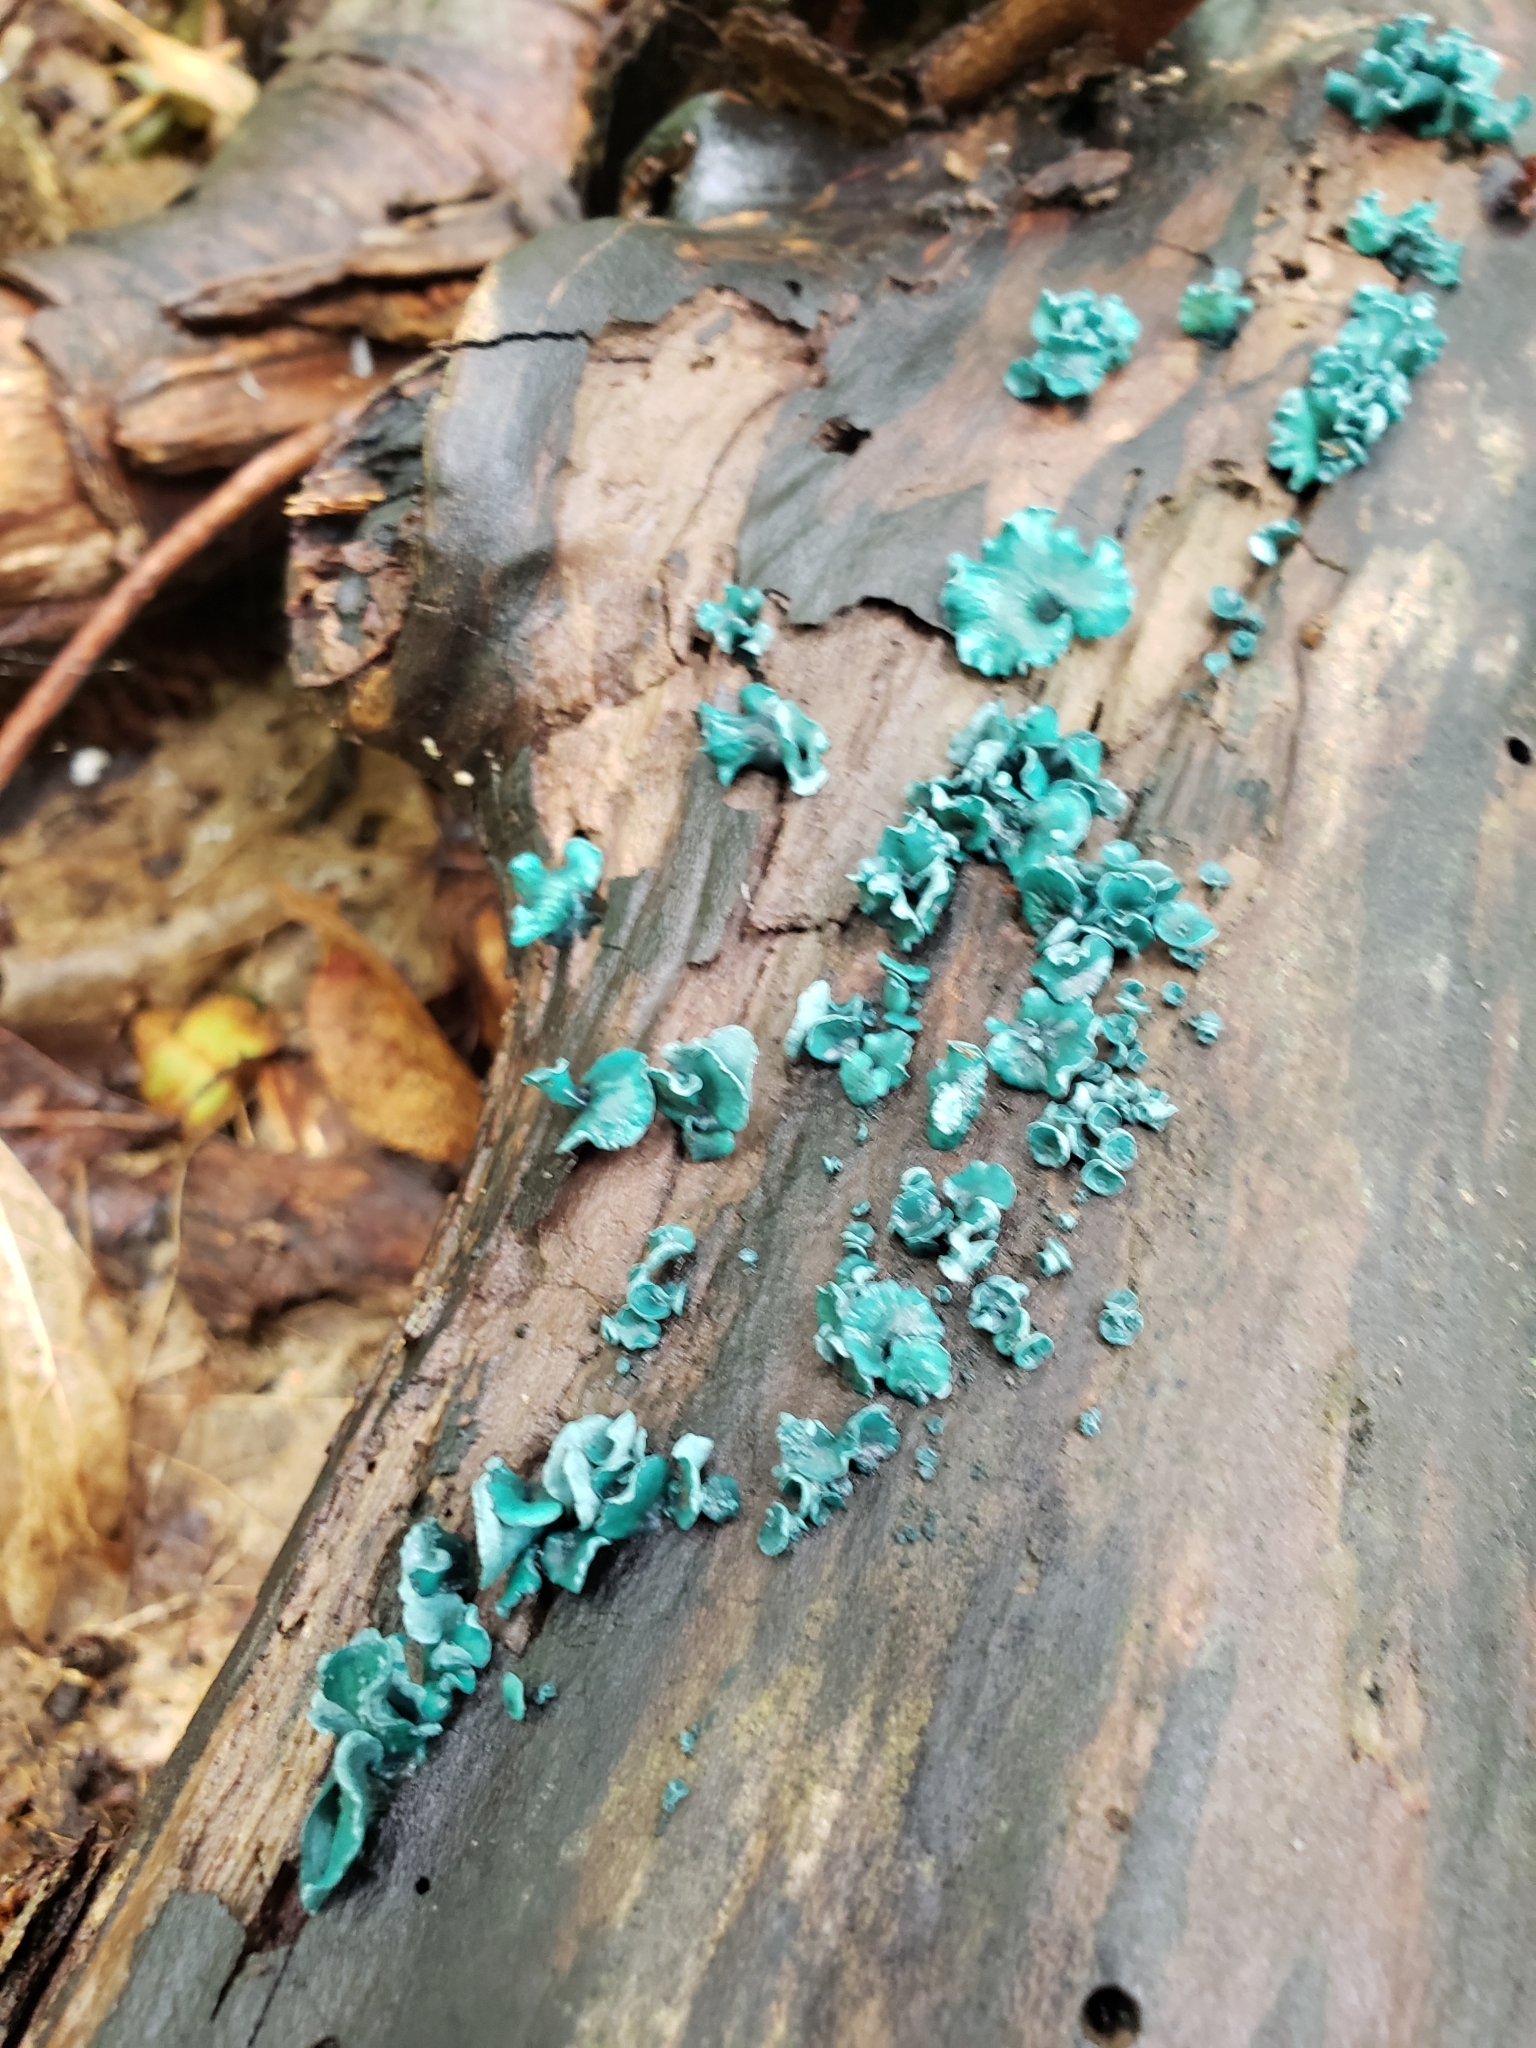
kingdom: Fungi
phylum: Ascomycota
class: Leotiomycetes
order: Helotiales
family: Chlorociboriaceae
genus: Chlorociboria
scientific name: Chlorociboria aeruginascens
